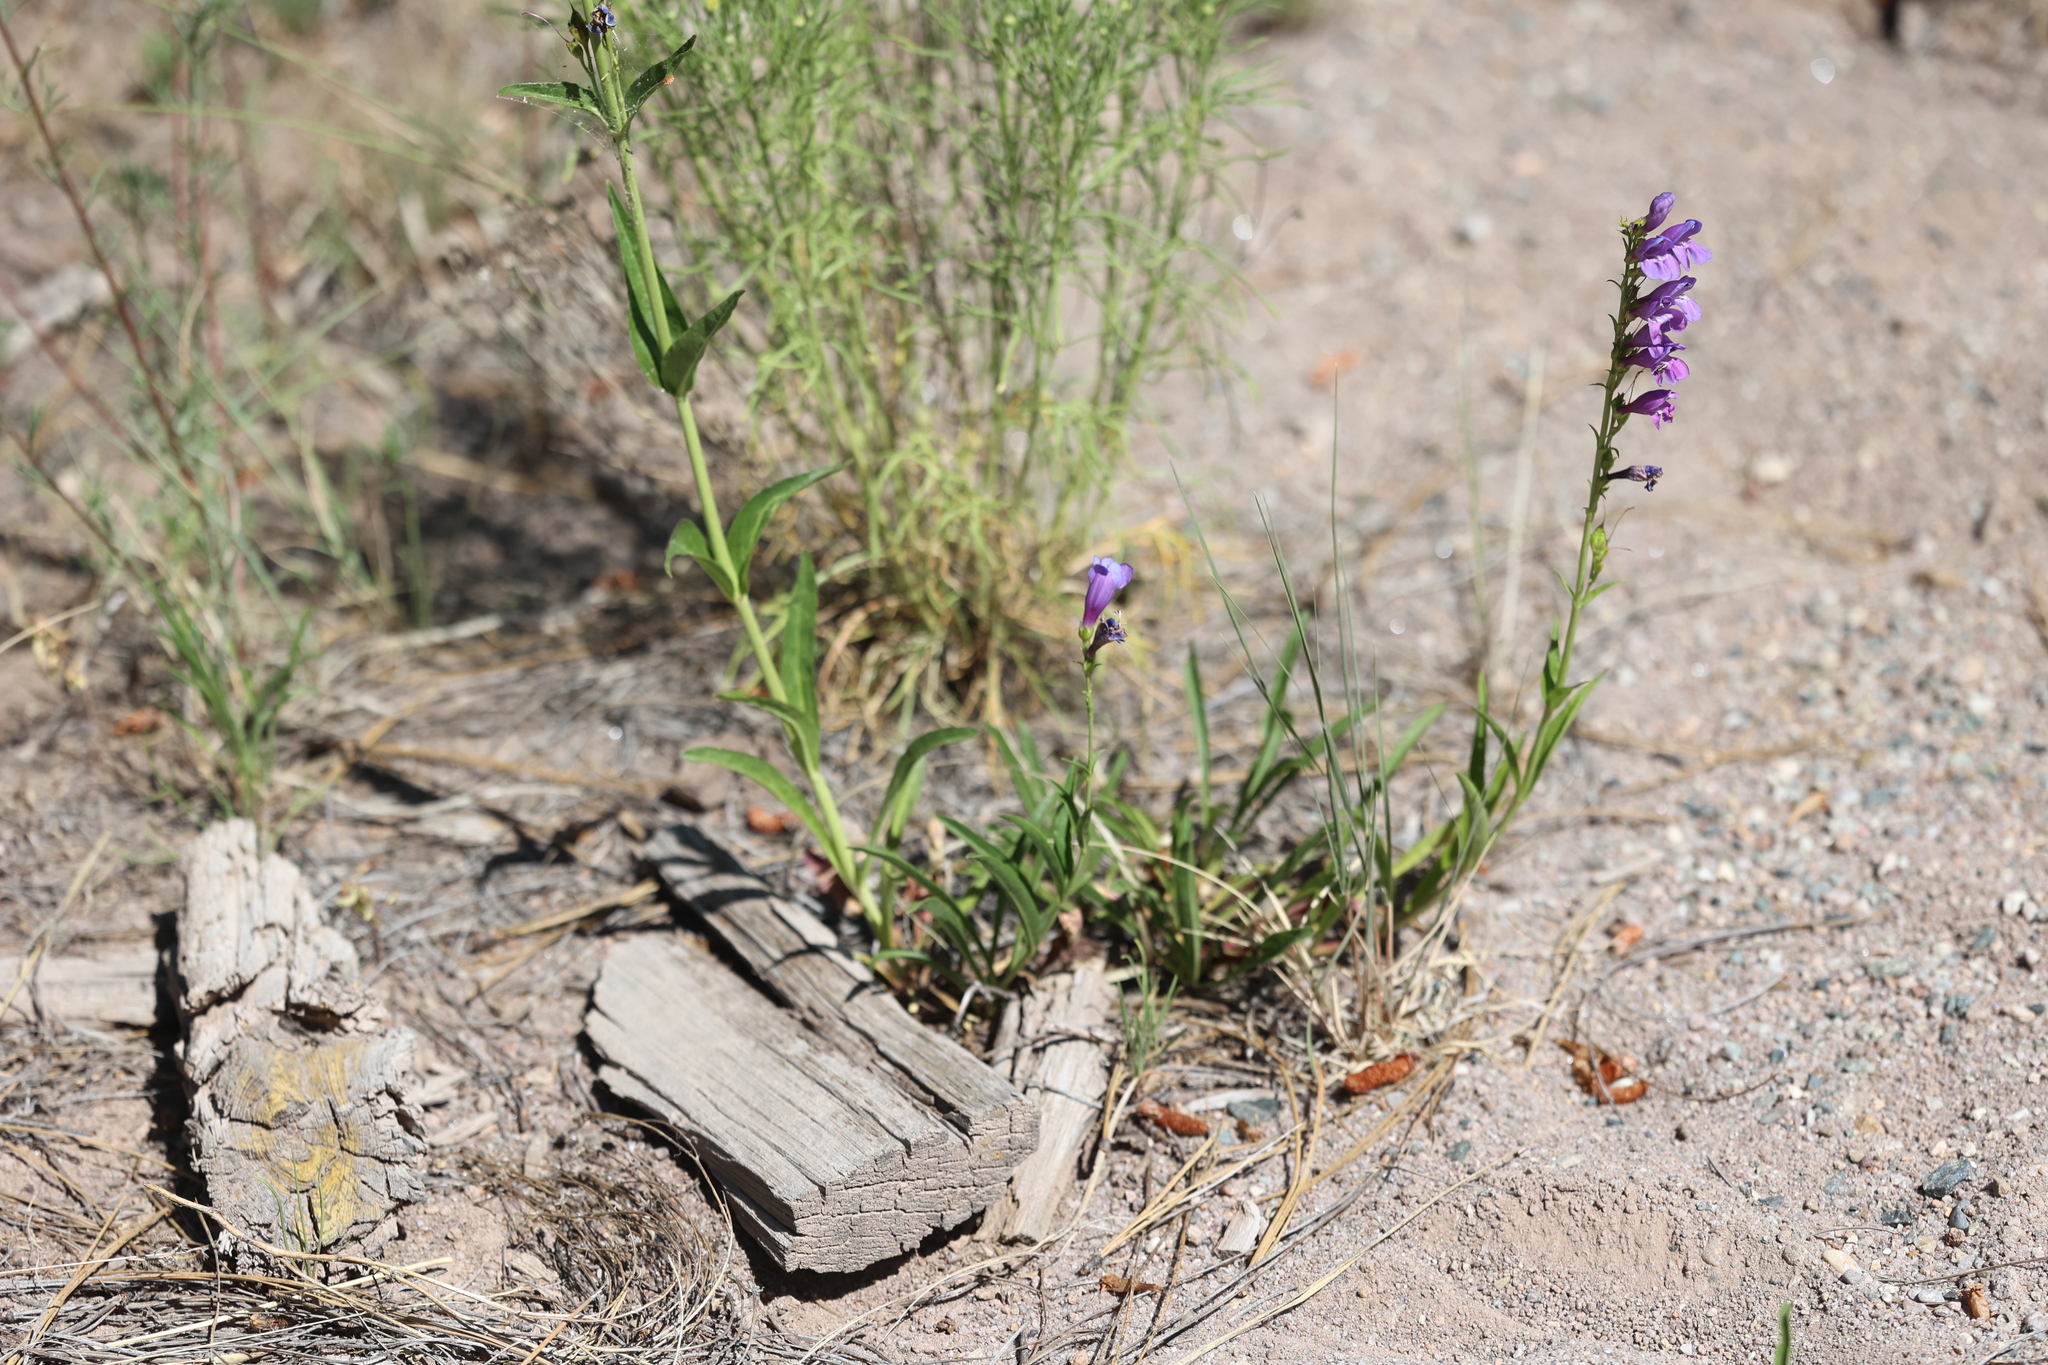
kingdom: Plantae
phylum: Tracheophyta
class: Magnoliopsida
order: Lamiales
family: Plantaginaceae
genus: Penstemon
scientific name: Penstemon strictus
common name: Rocky mountain penstemon
